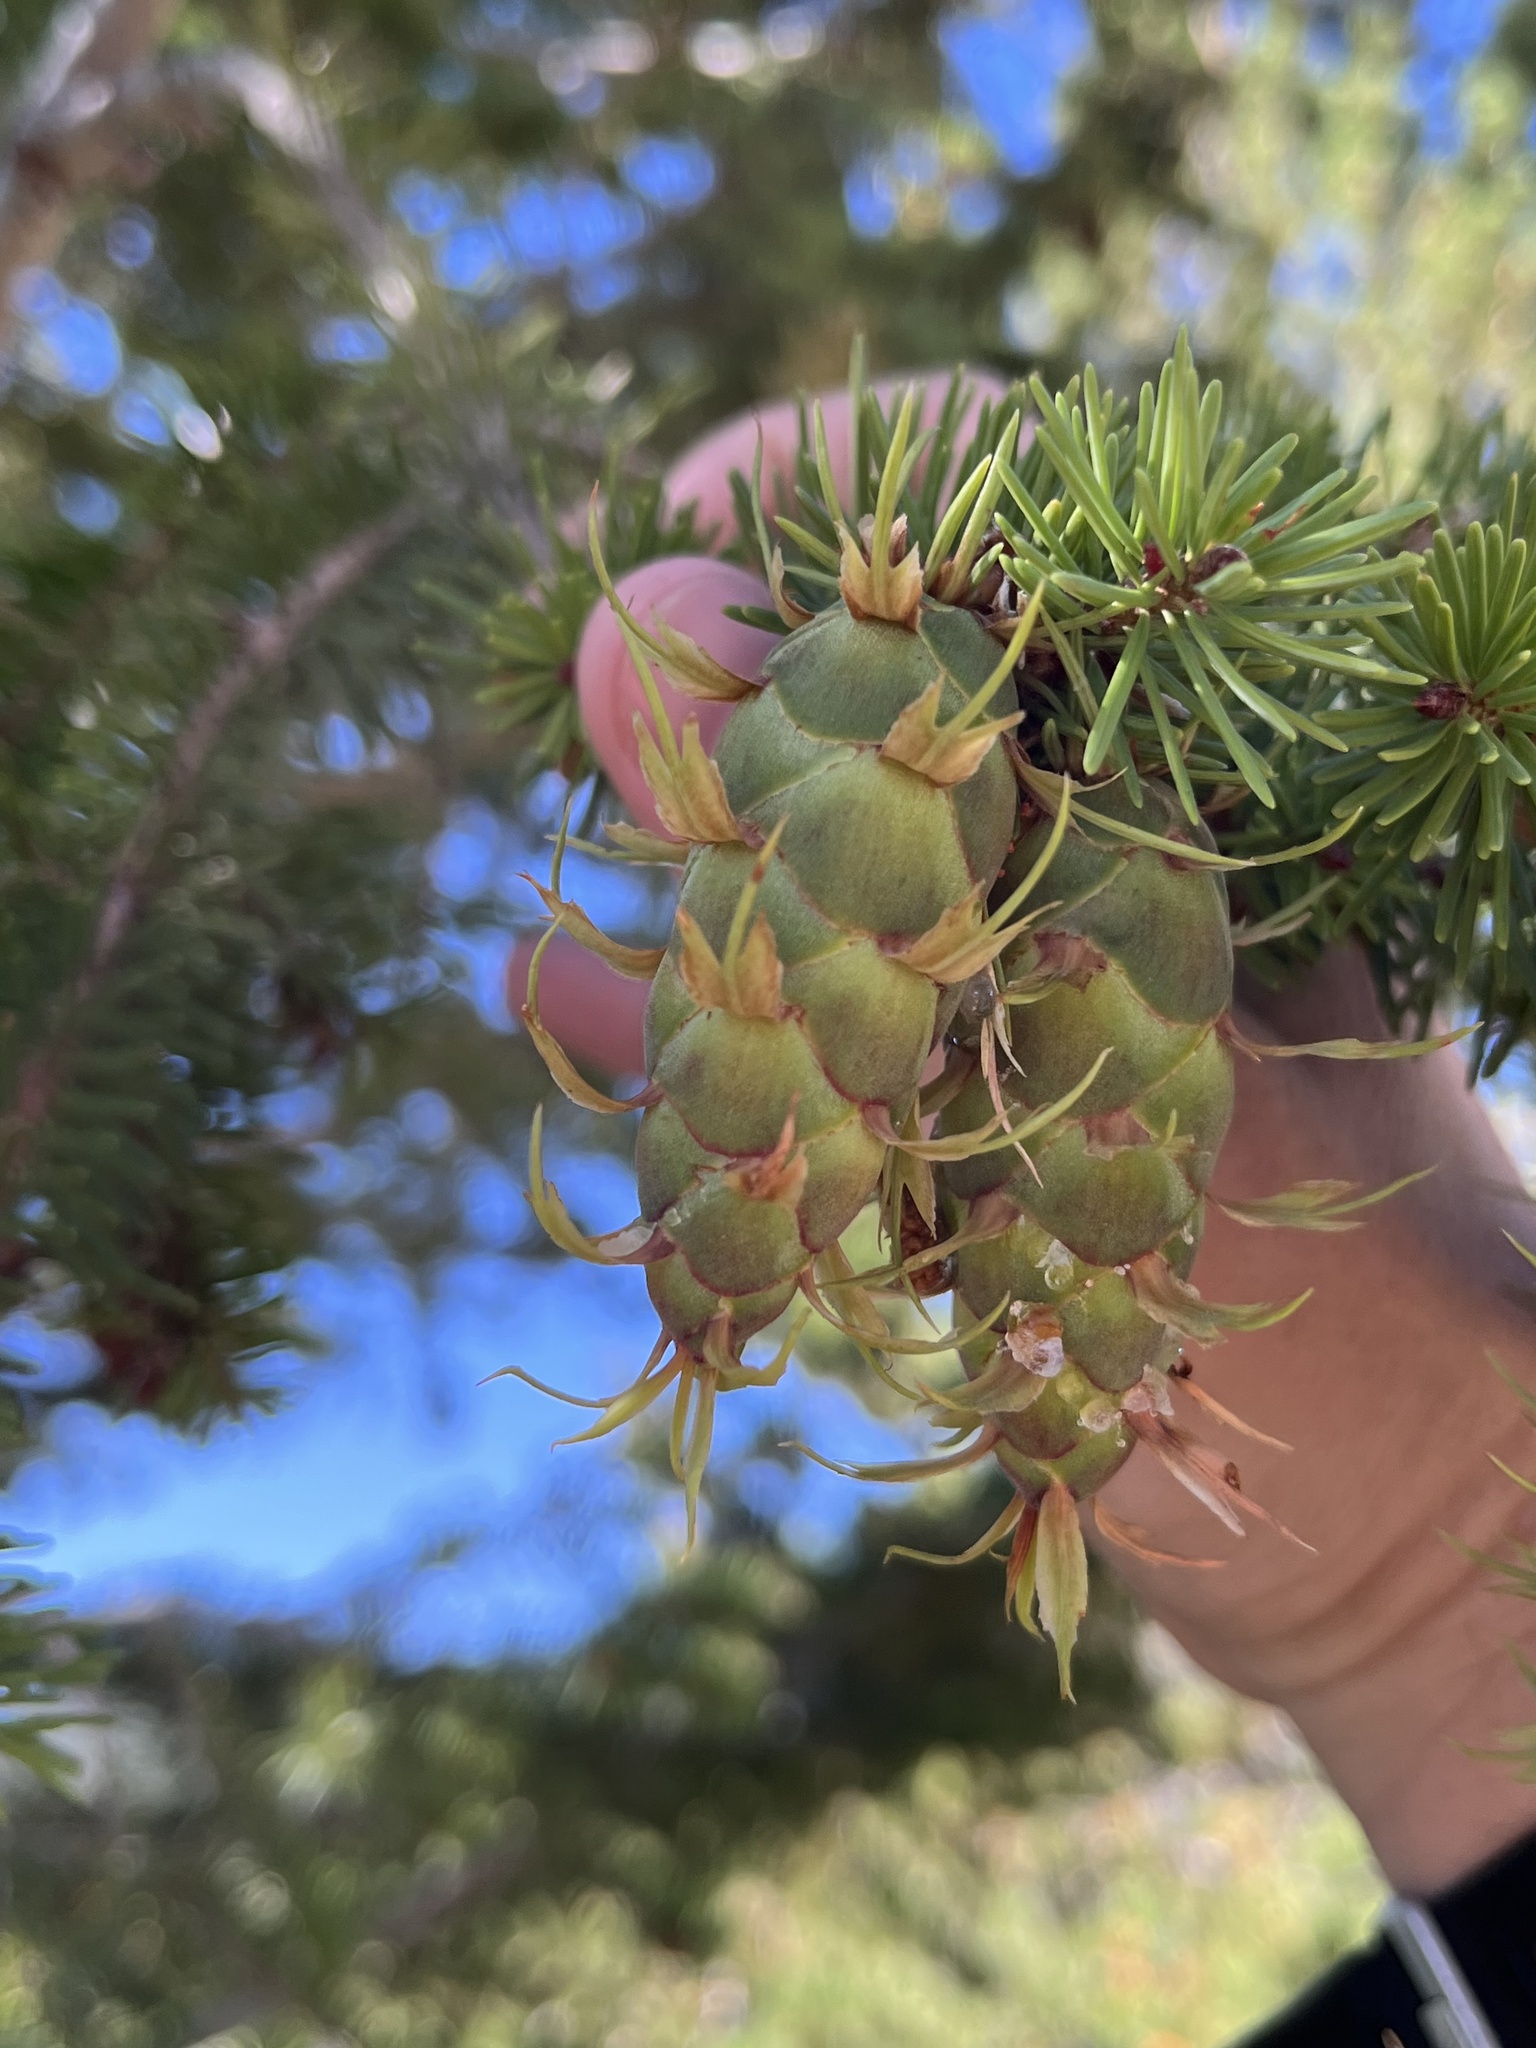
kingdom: Plantae
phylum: Tracheophyta
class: Pinopsida
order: Pinales
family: Pinaceae
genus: Pseudotsuga
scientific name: Pseudotsuga menziesii
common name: Douglas fir
